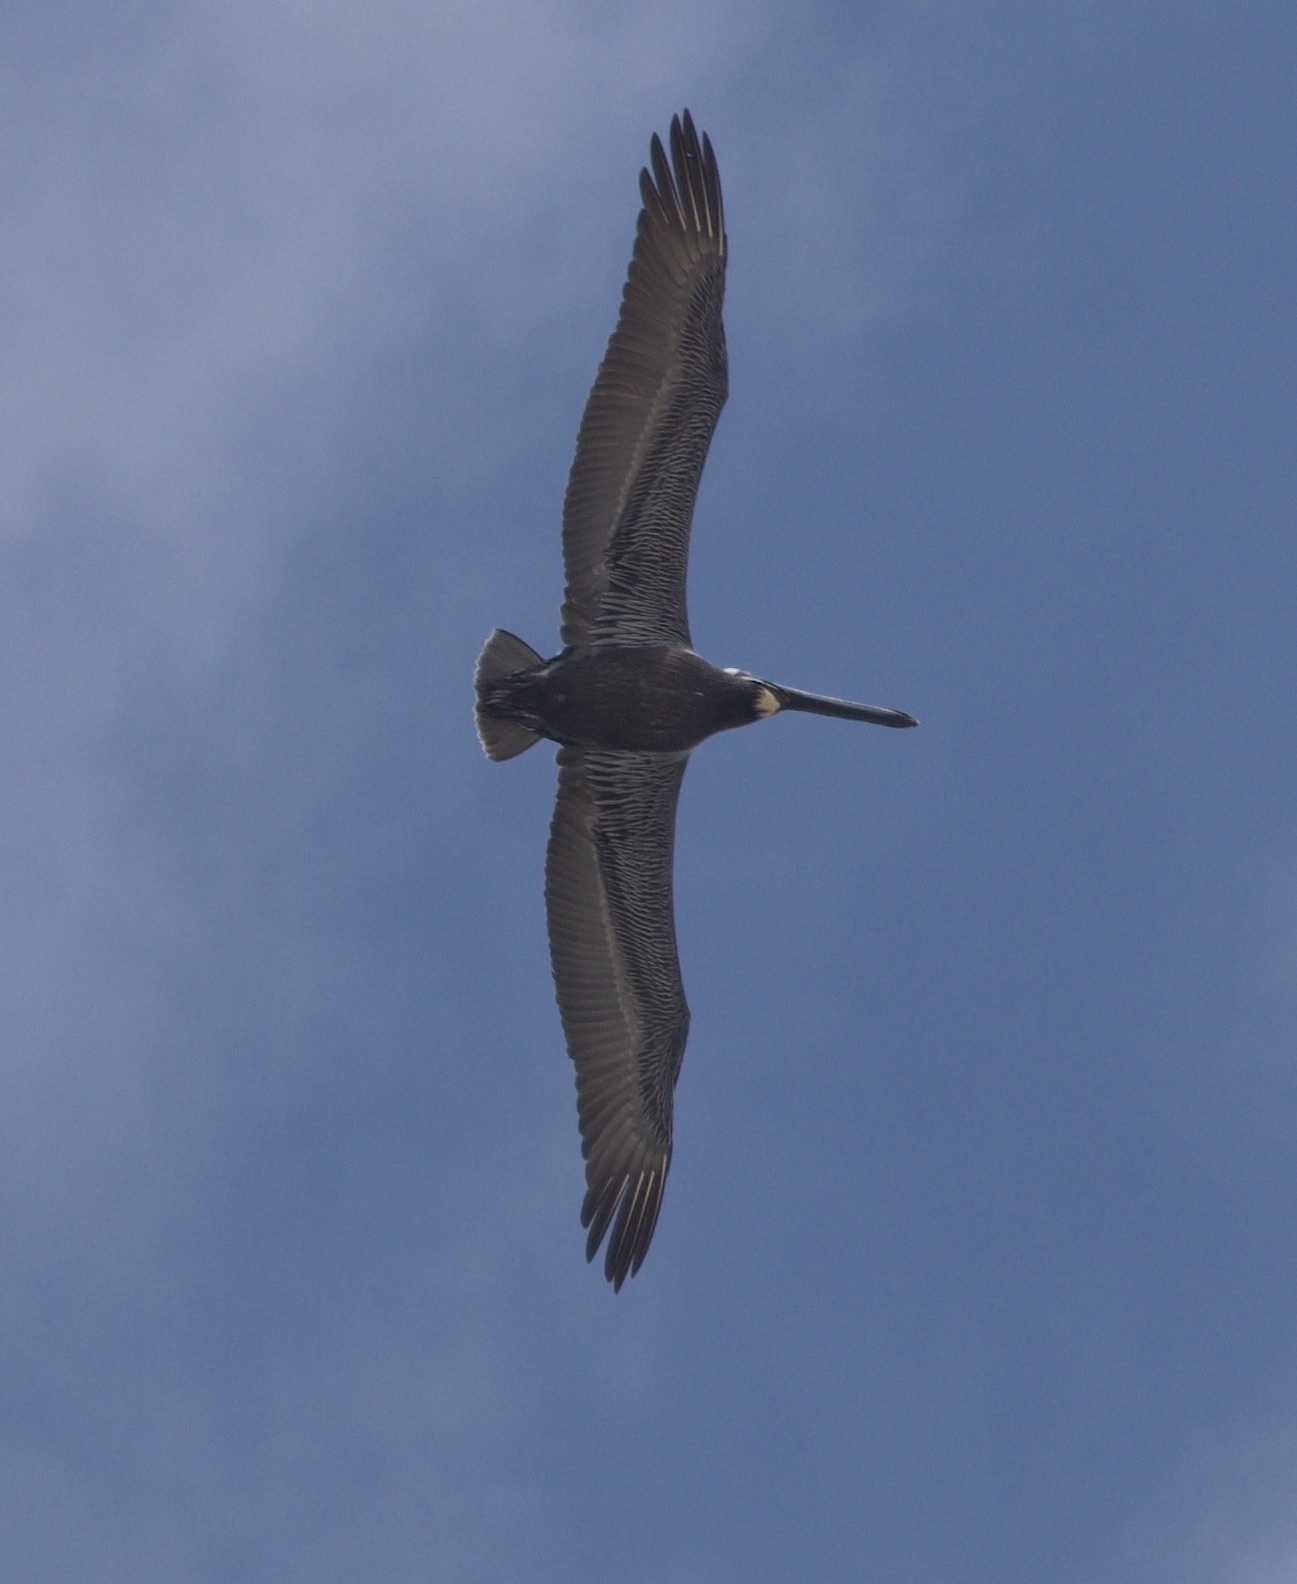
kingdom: Animalia
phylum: Chordata
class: Aves
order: Pelecaniformes
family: Pelecanidae
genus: Pelecanus
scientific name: Pelecanus occidentalis
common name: Brown pelican
